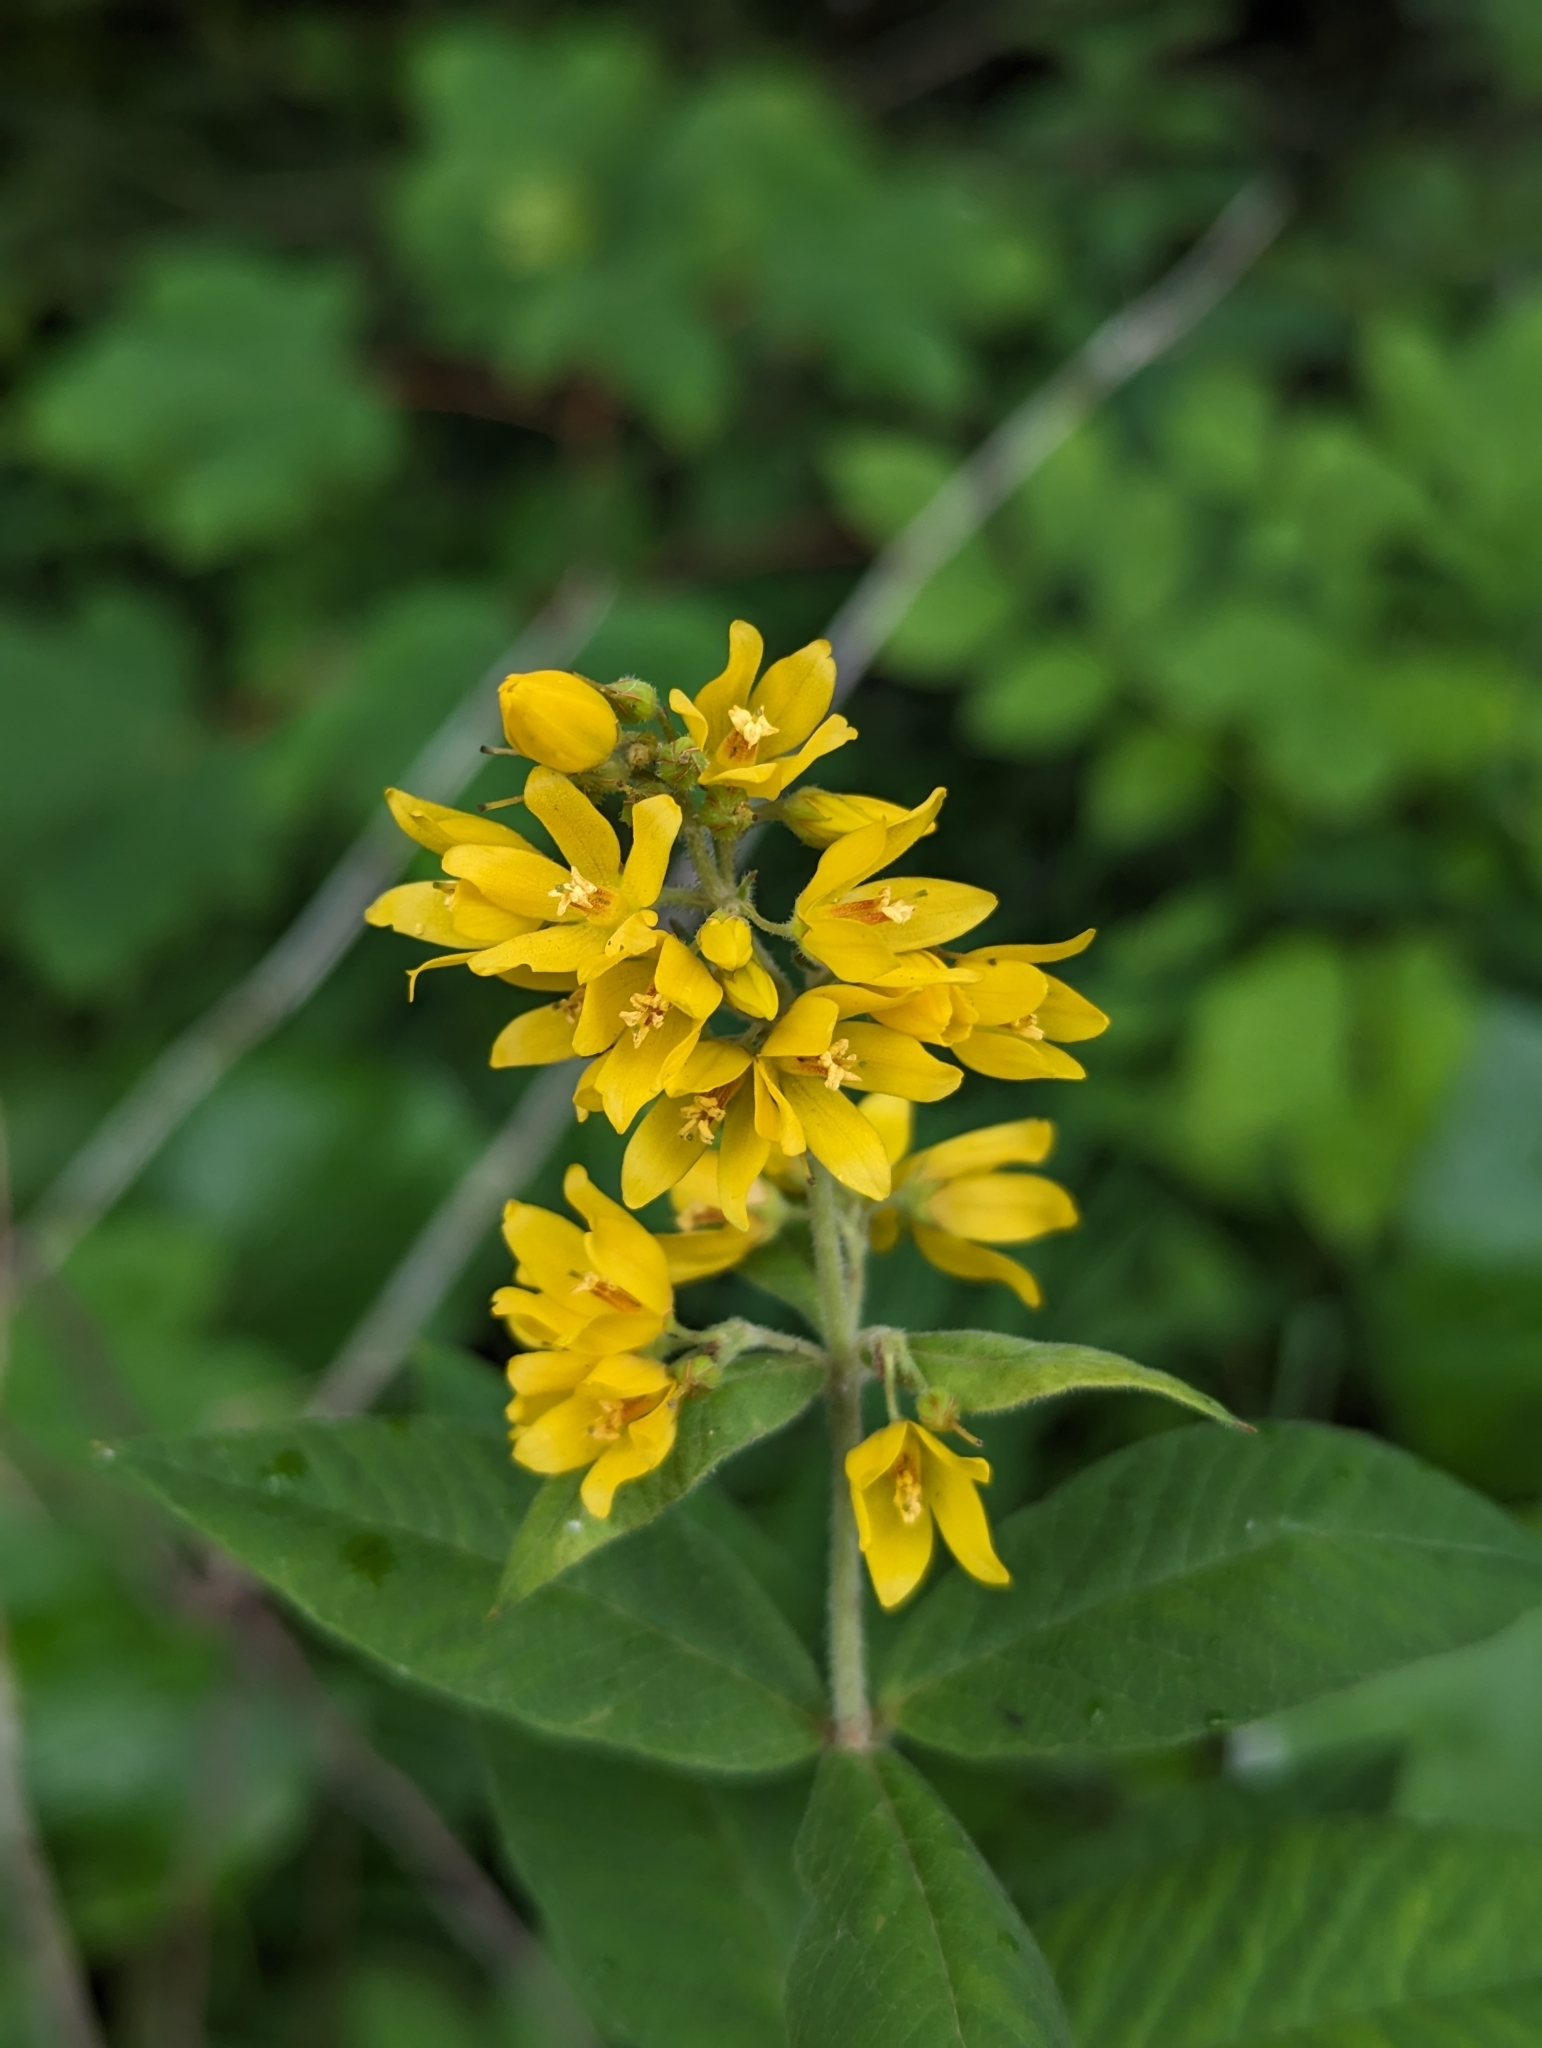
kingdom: Plantae
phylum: Tracheophyta
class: Magnoliopsida
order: Ericales
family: Primulaceae
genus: Lysimachia
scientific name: Lysimachia vulgaris
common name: Yellow loosestrife
